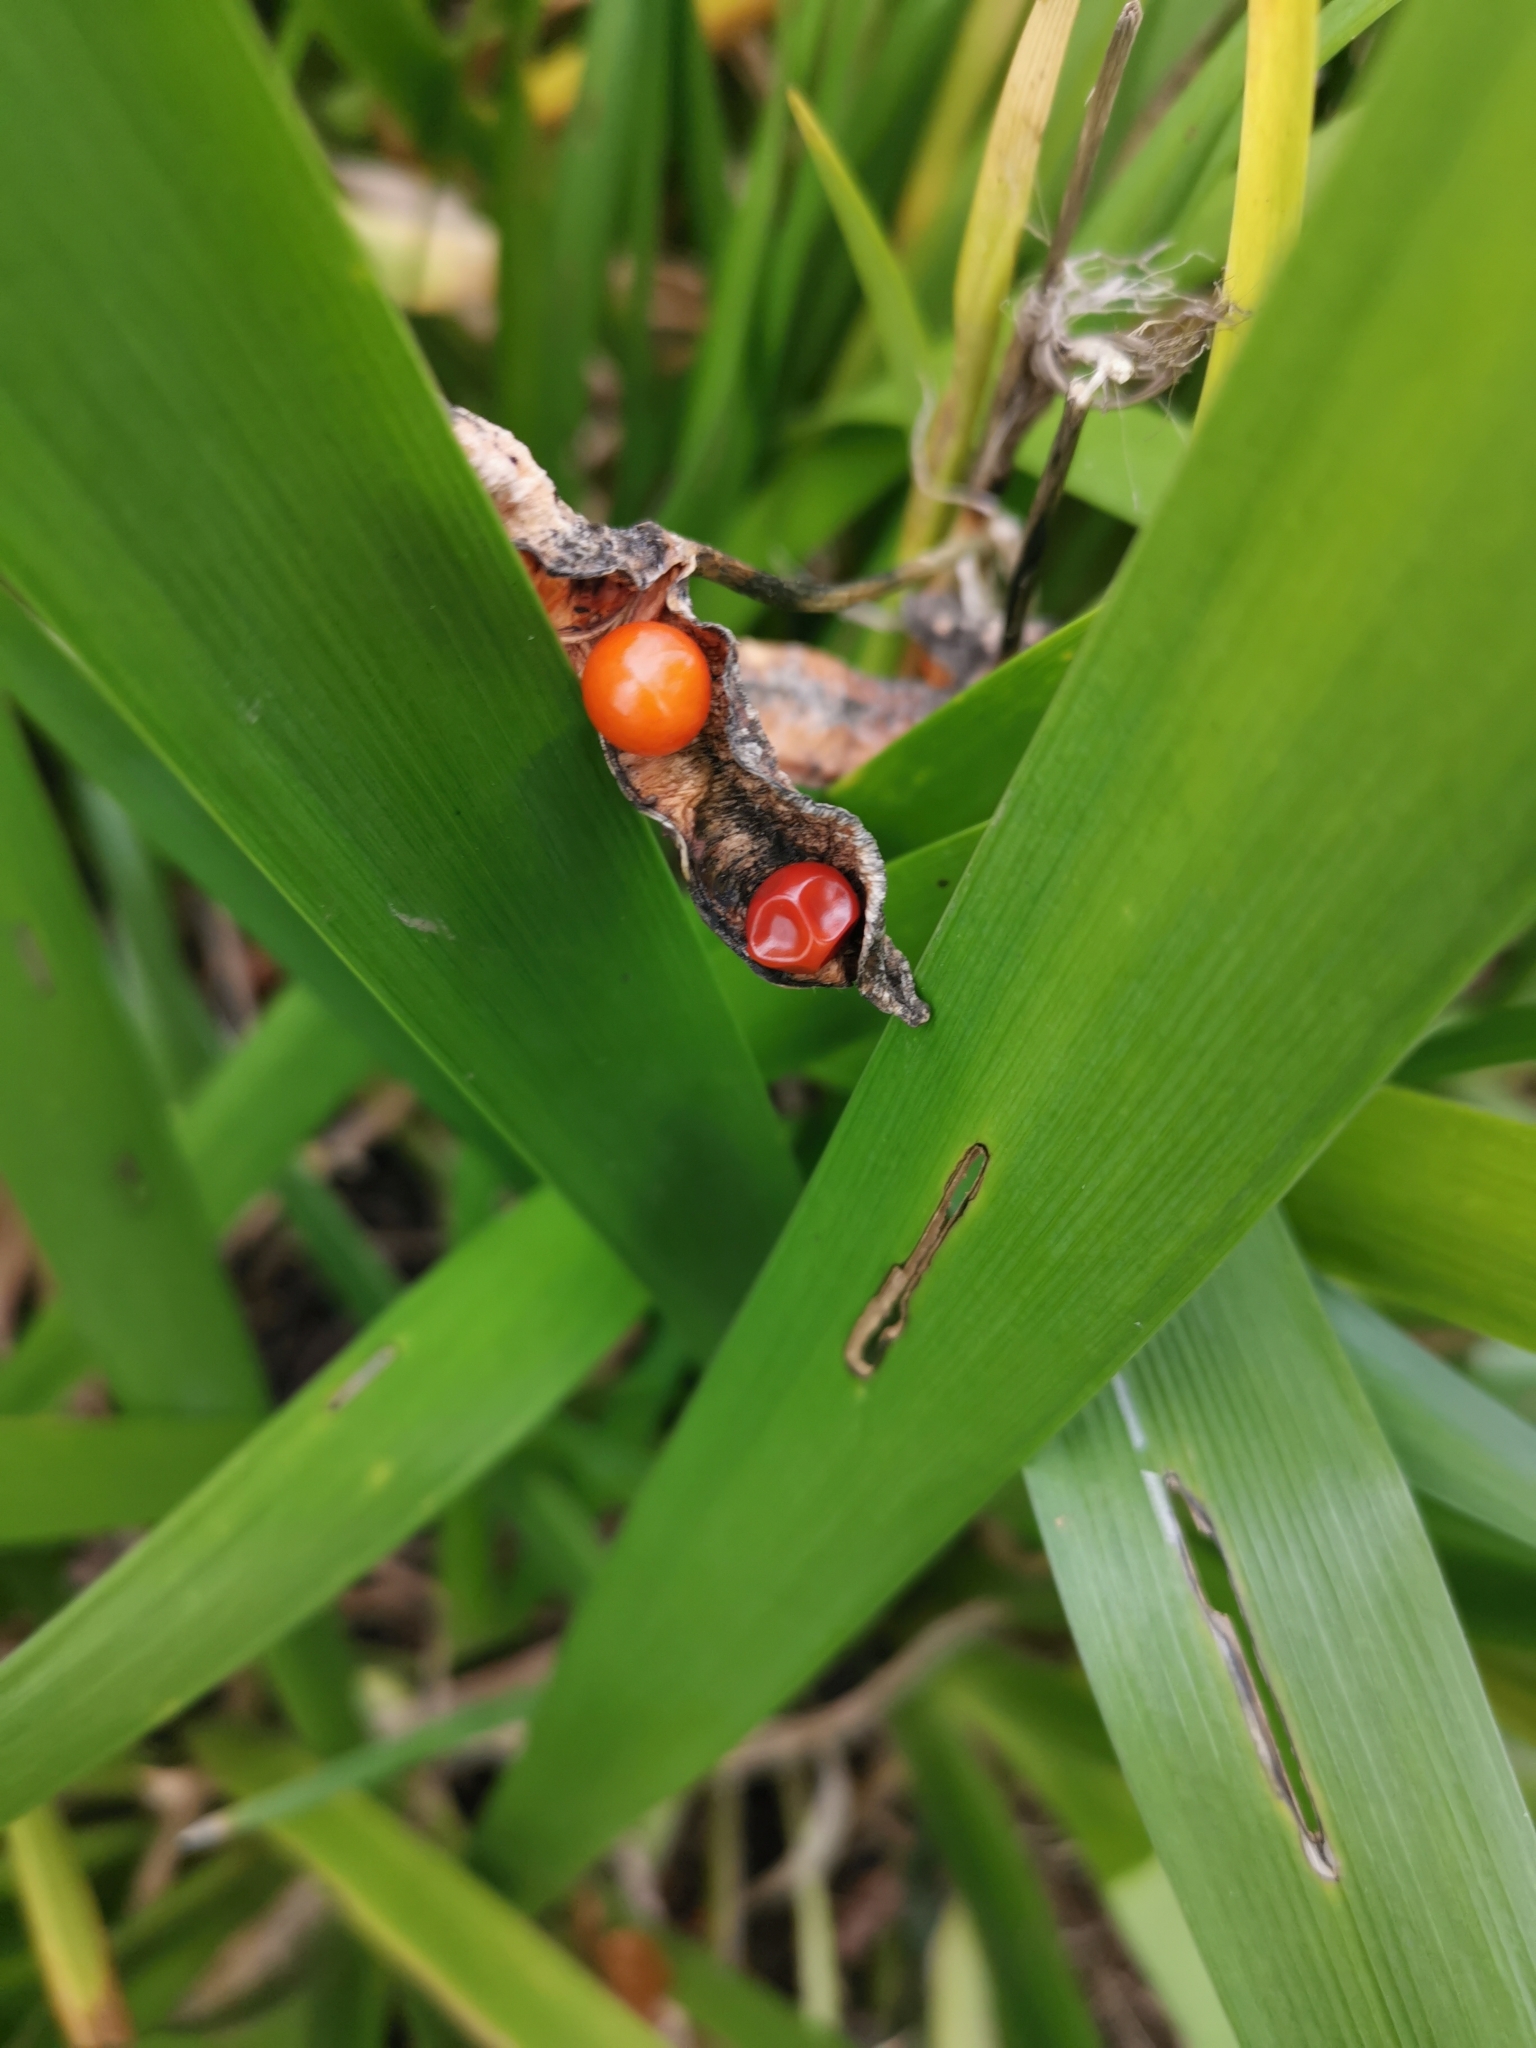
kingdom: Plantae
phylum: Tracheophyta
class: Liliopsida
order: Asparagales
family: Iridaceae
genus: Iris
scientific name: Iris foetidissima
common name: Stinking iris
